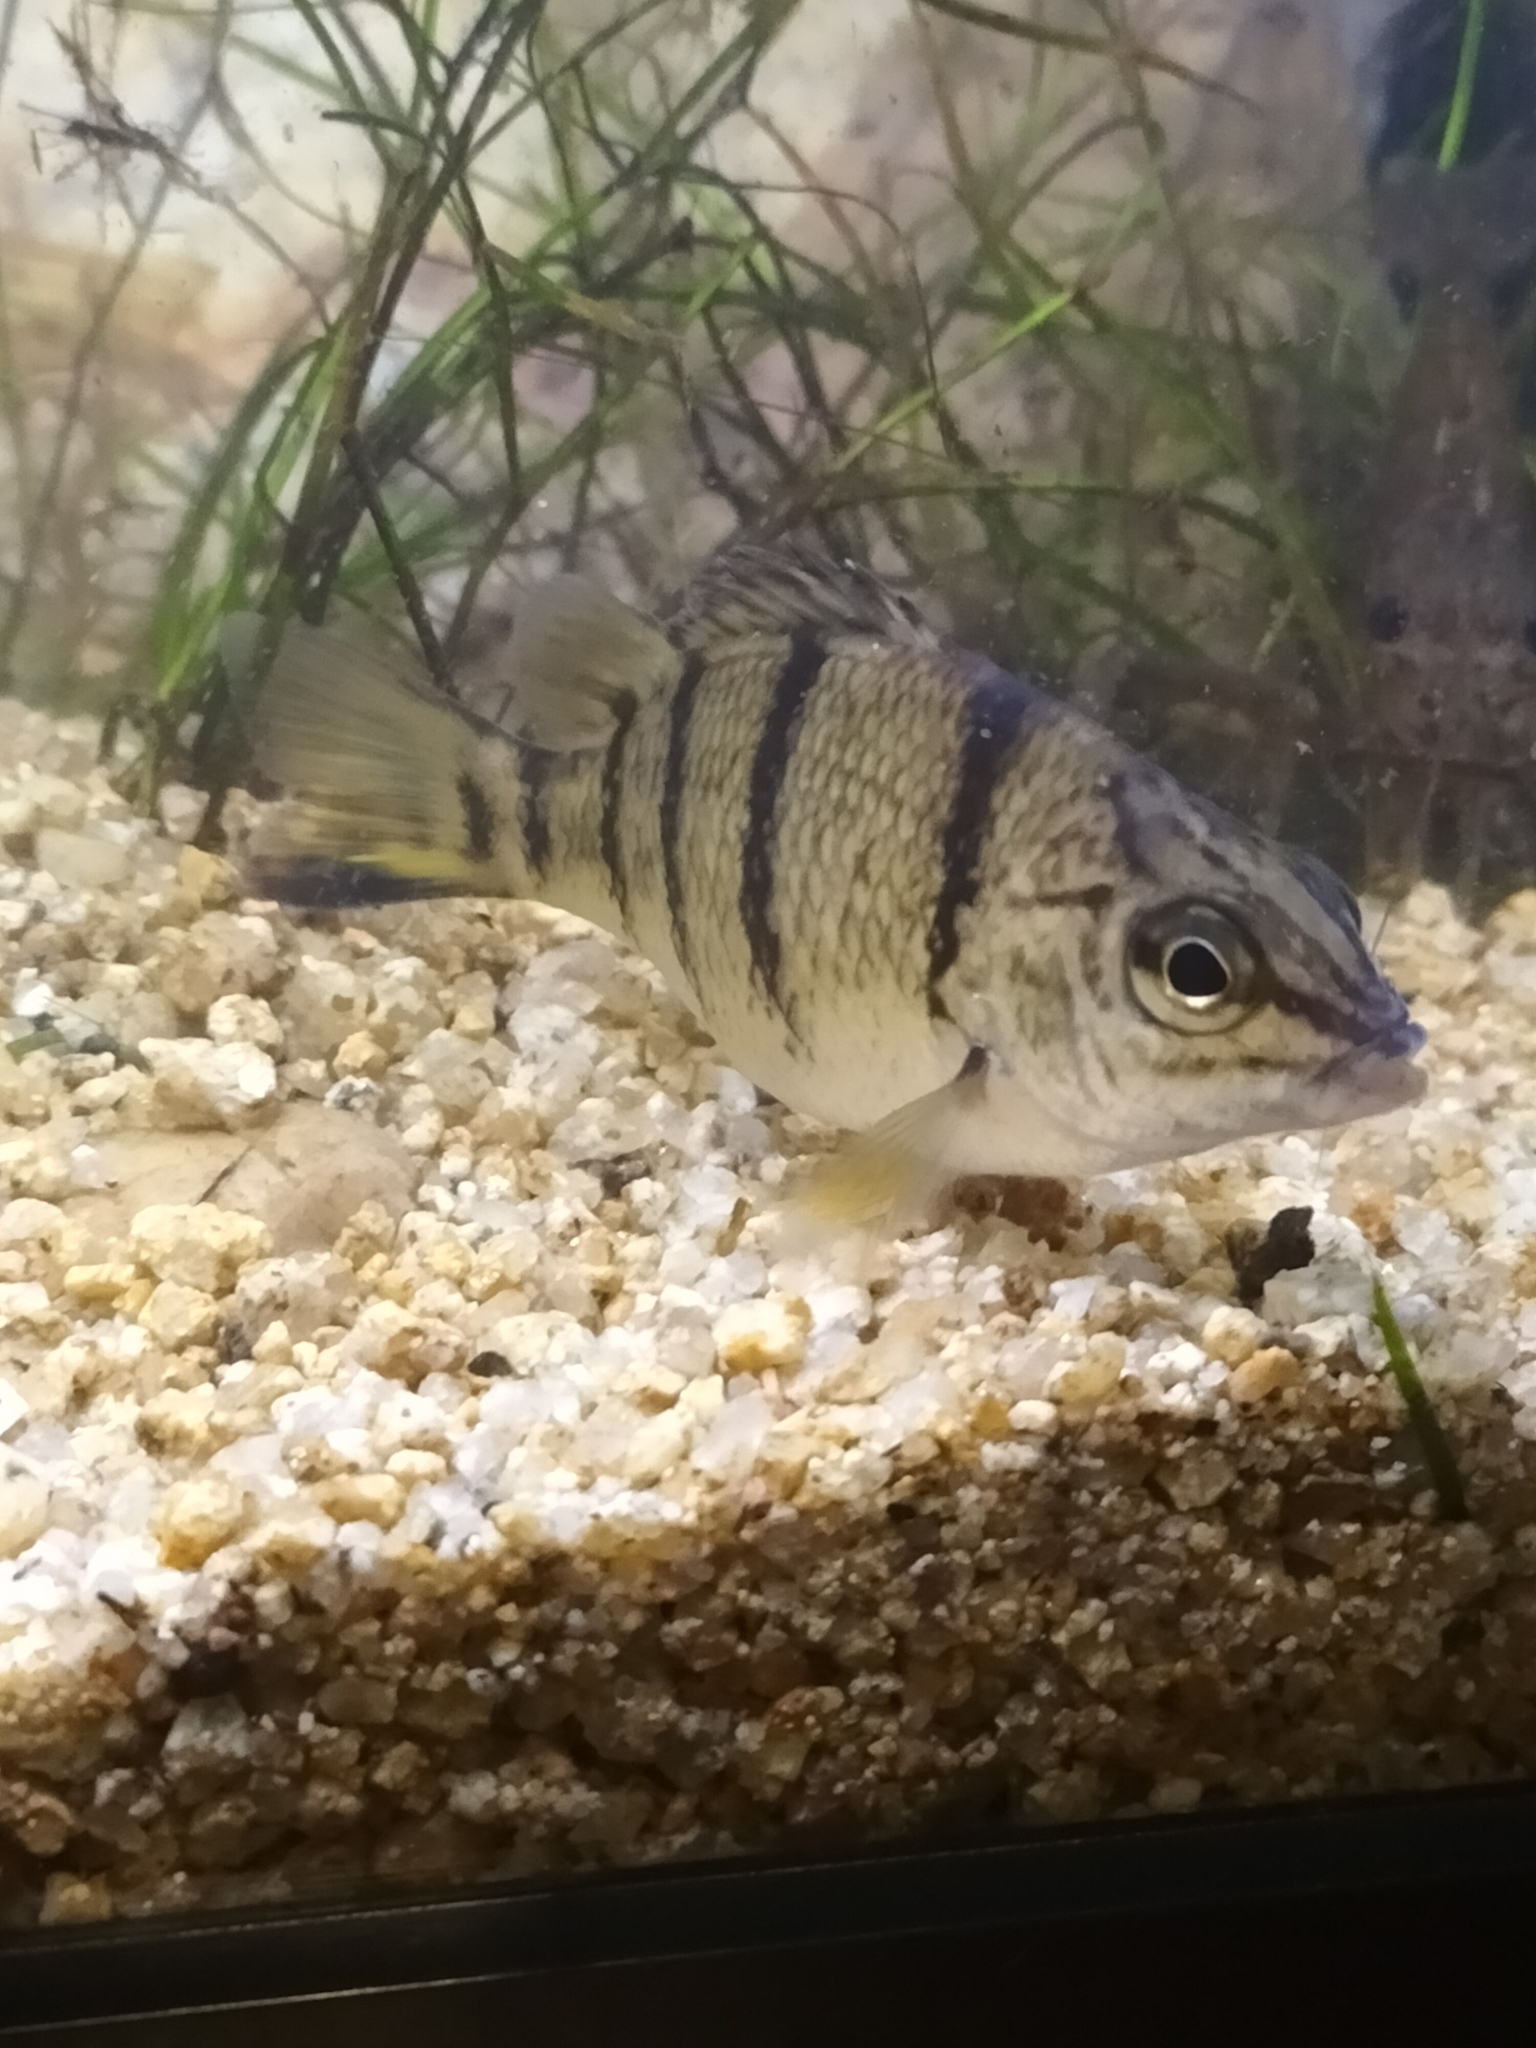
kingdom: Animalia
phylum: Chordata
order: Perciformes
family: Terapontidae
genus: Amniataba
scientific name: Amniataba percoides
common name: Banded grunter
